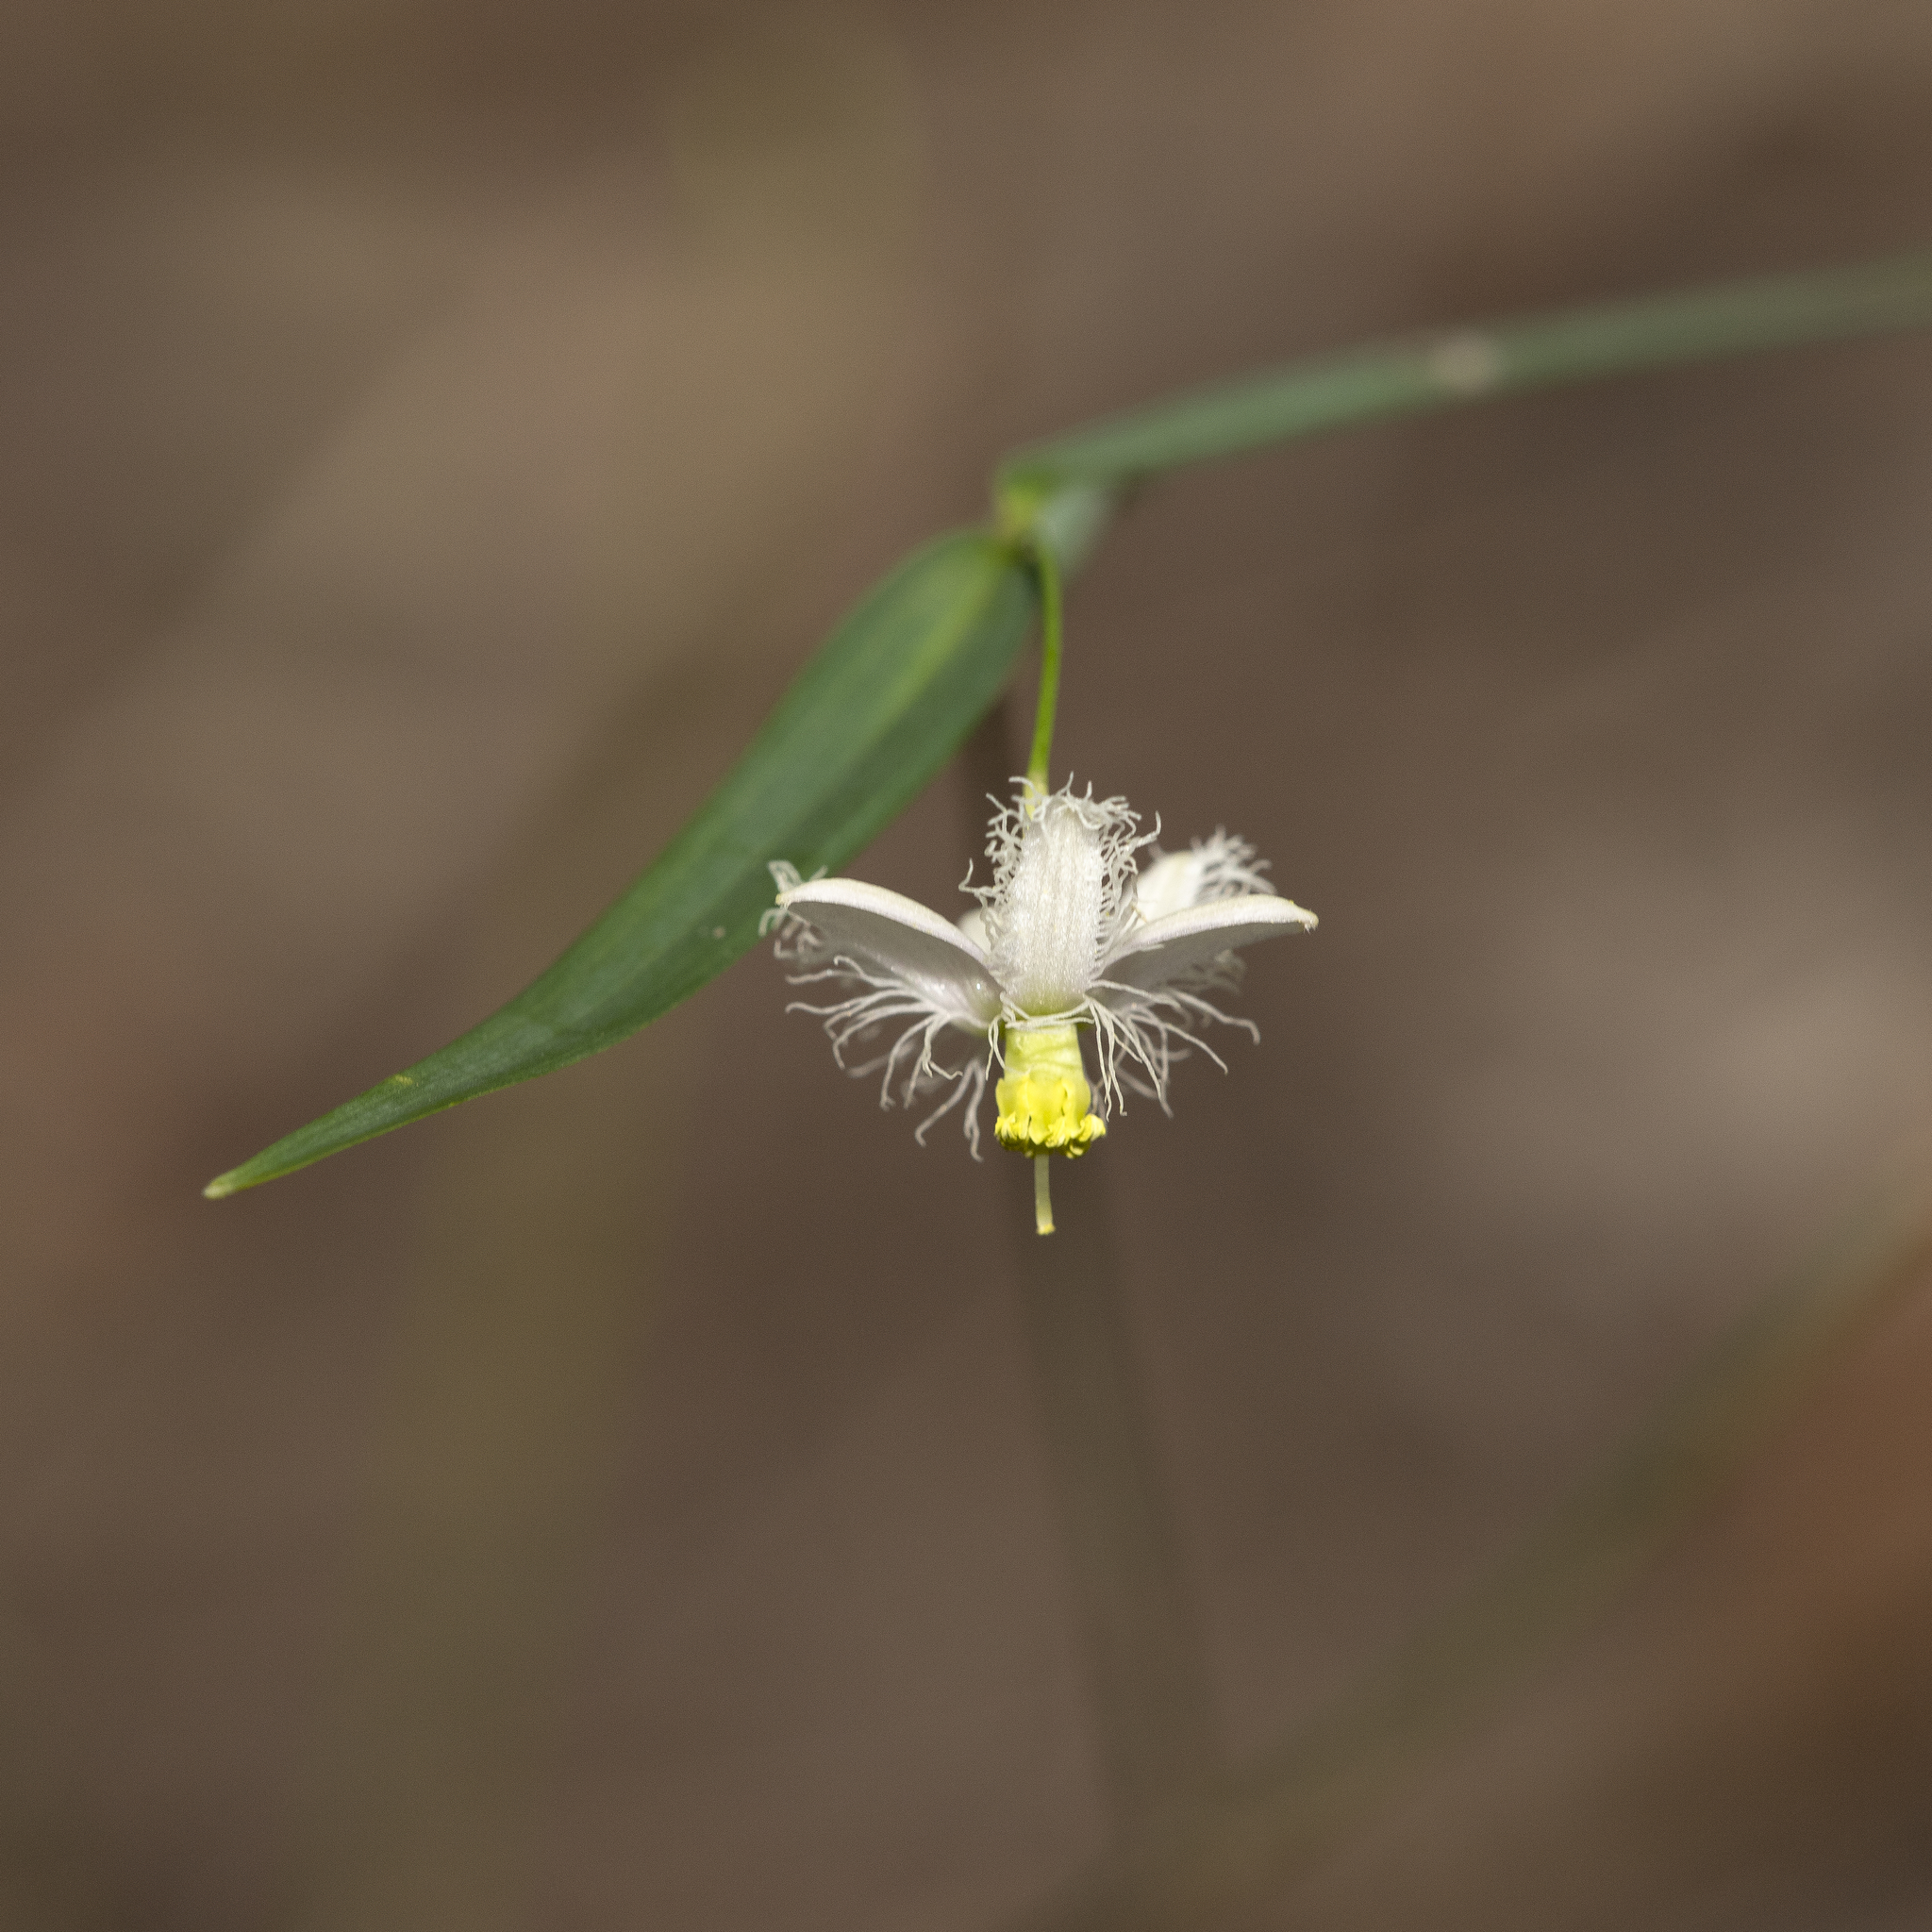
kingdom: Plantae
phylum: Tracheophyta
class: Liliopsida
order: Asparagales
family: Asparagaceae
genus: Eustrephus
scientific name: Eustrephus latifolius
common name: Orangevine
